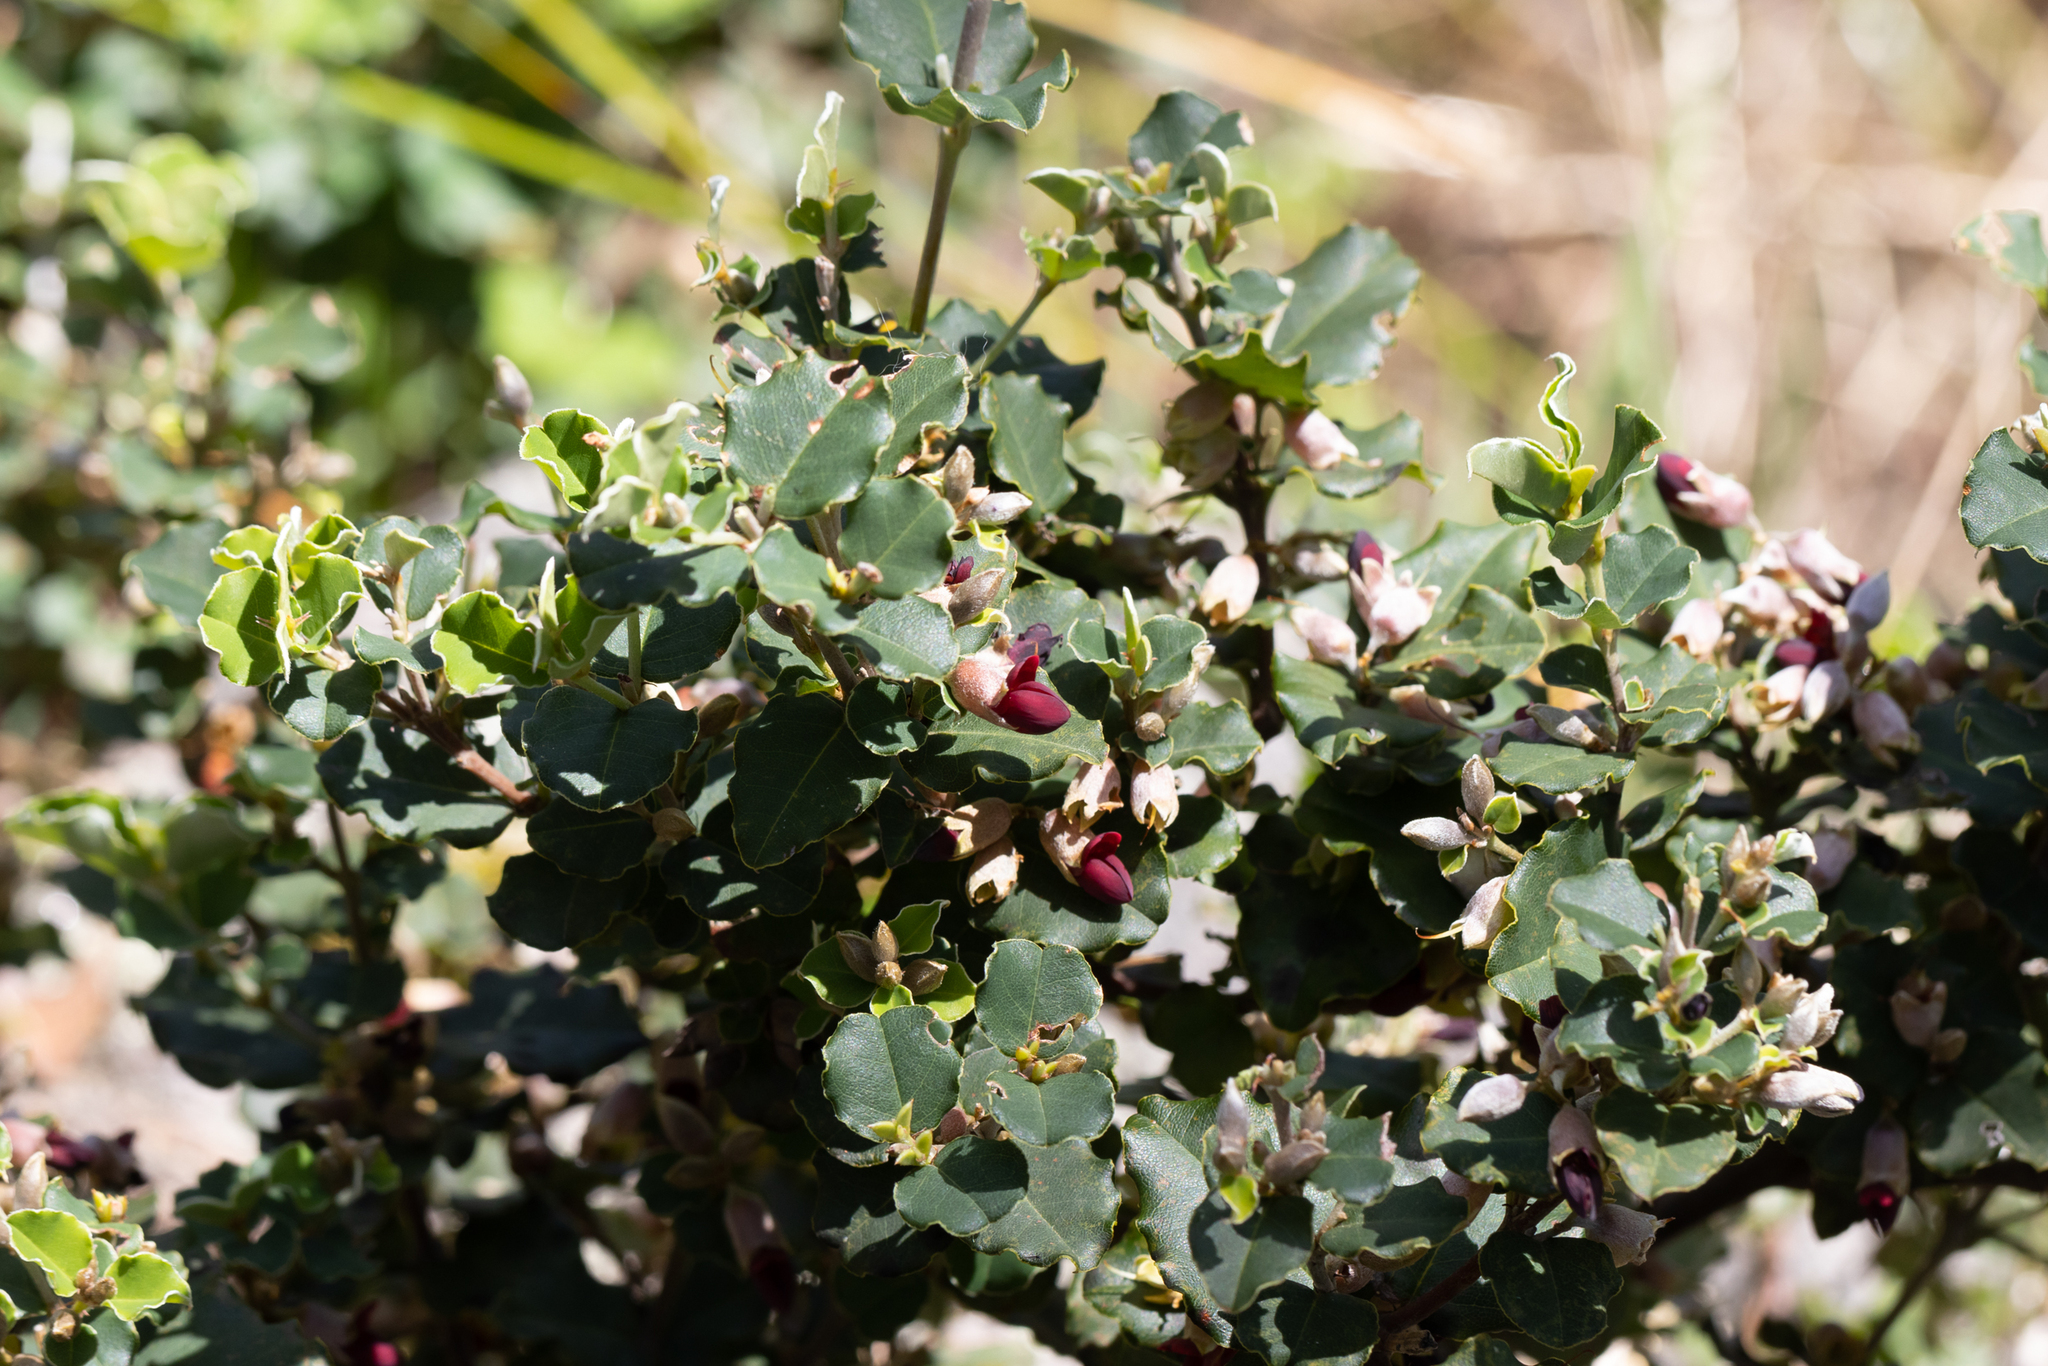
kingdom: Plantae
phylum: Tracheophyta
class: Magnoliopsida
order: Fabales
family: Fabaceae
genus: Gastrolobium
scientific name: Gastrolobium subcordatum
